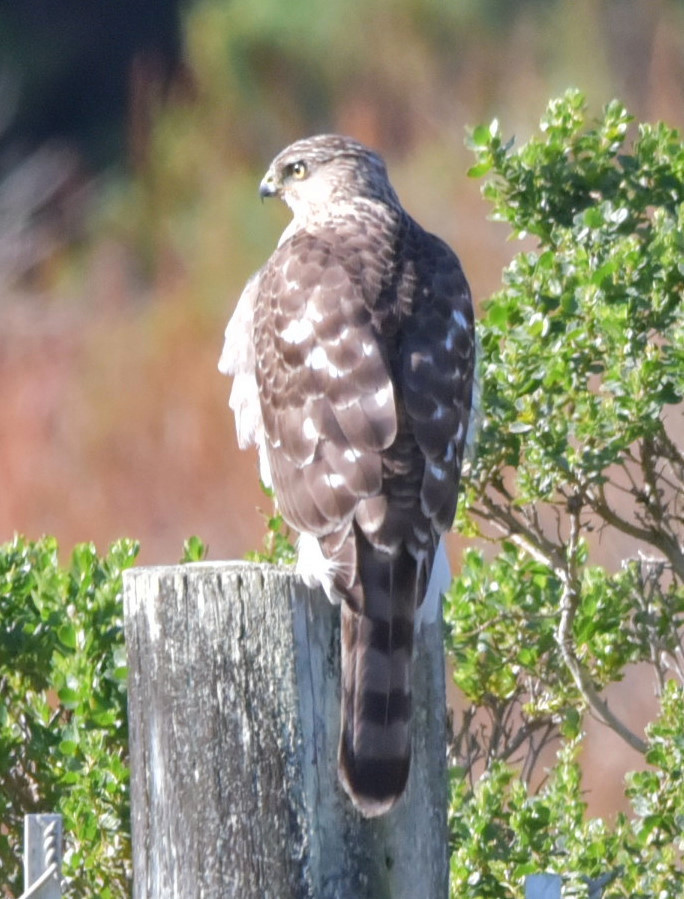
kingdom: Animalia
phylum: Chordata
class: Aves
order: Accipitriformes
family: Accipitridae
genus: Accipiter
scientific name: Accipiter cooperii
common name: Cooper's hawk
